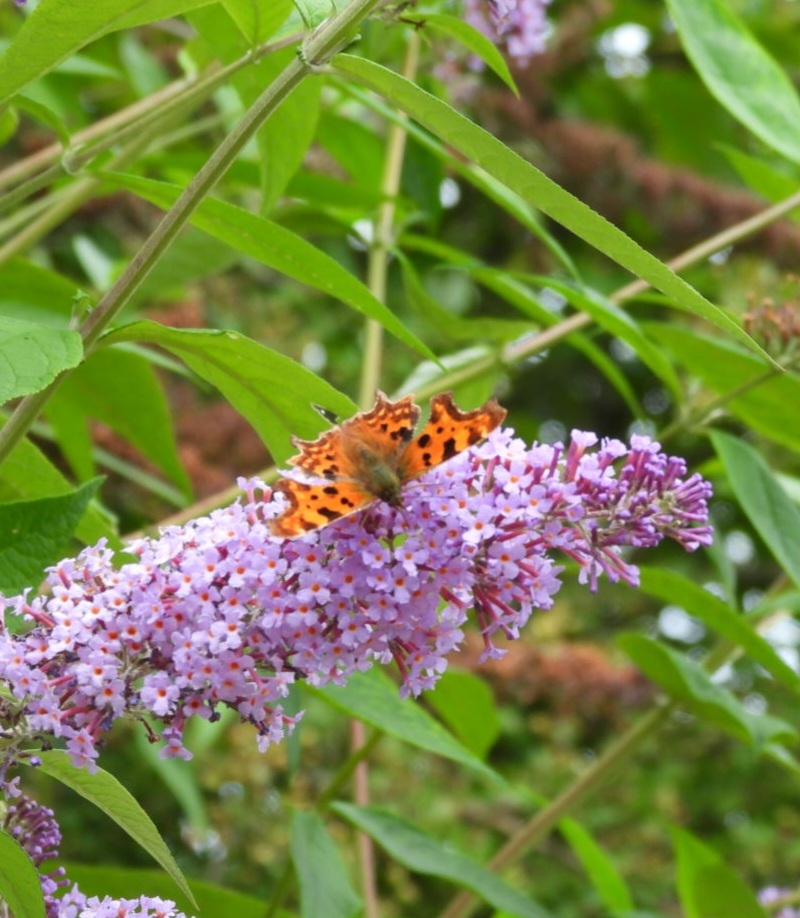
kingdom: Animalia
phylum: Arthropoda
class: Insecta
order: Lepidoptera
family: Nymphalidae
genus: Polygonia
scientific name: Polygonia c-album
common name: Comma
